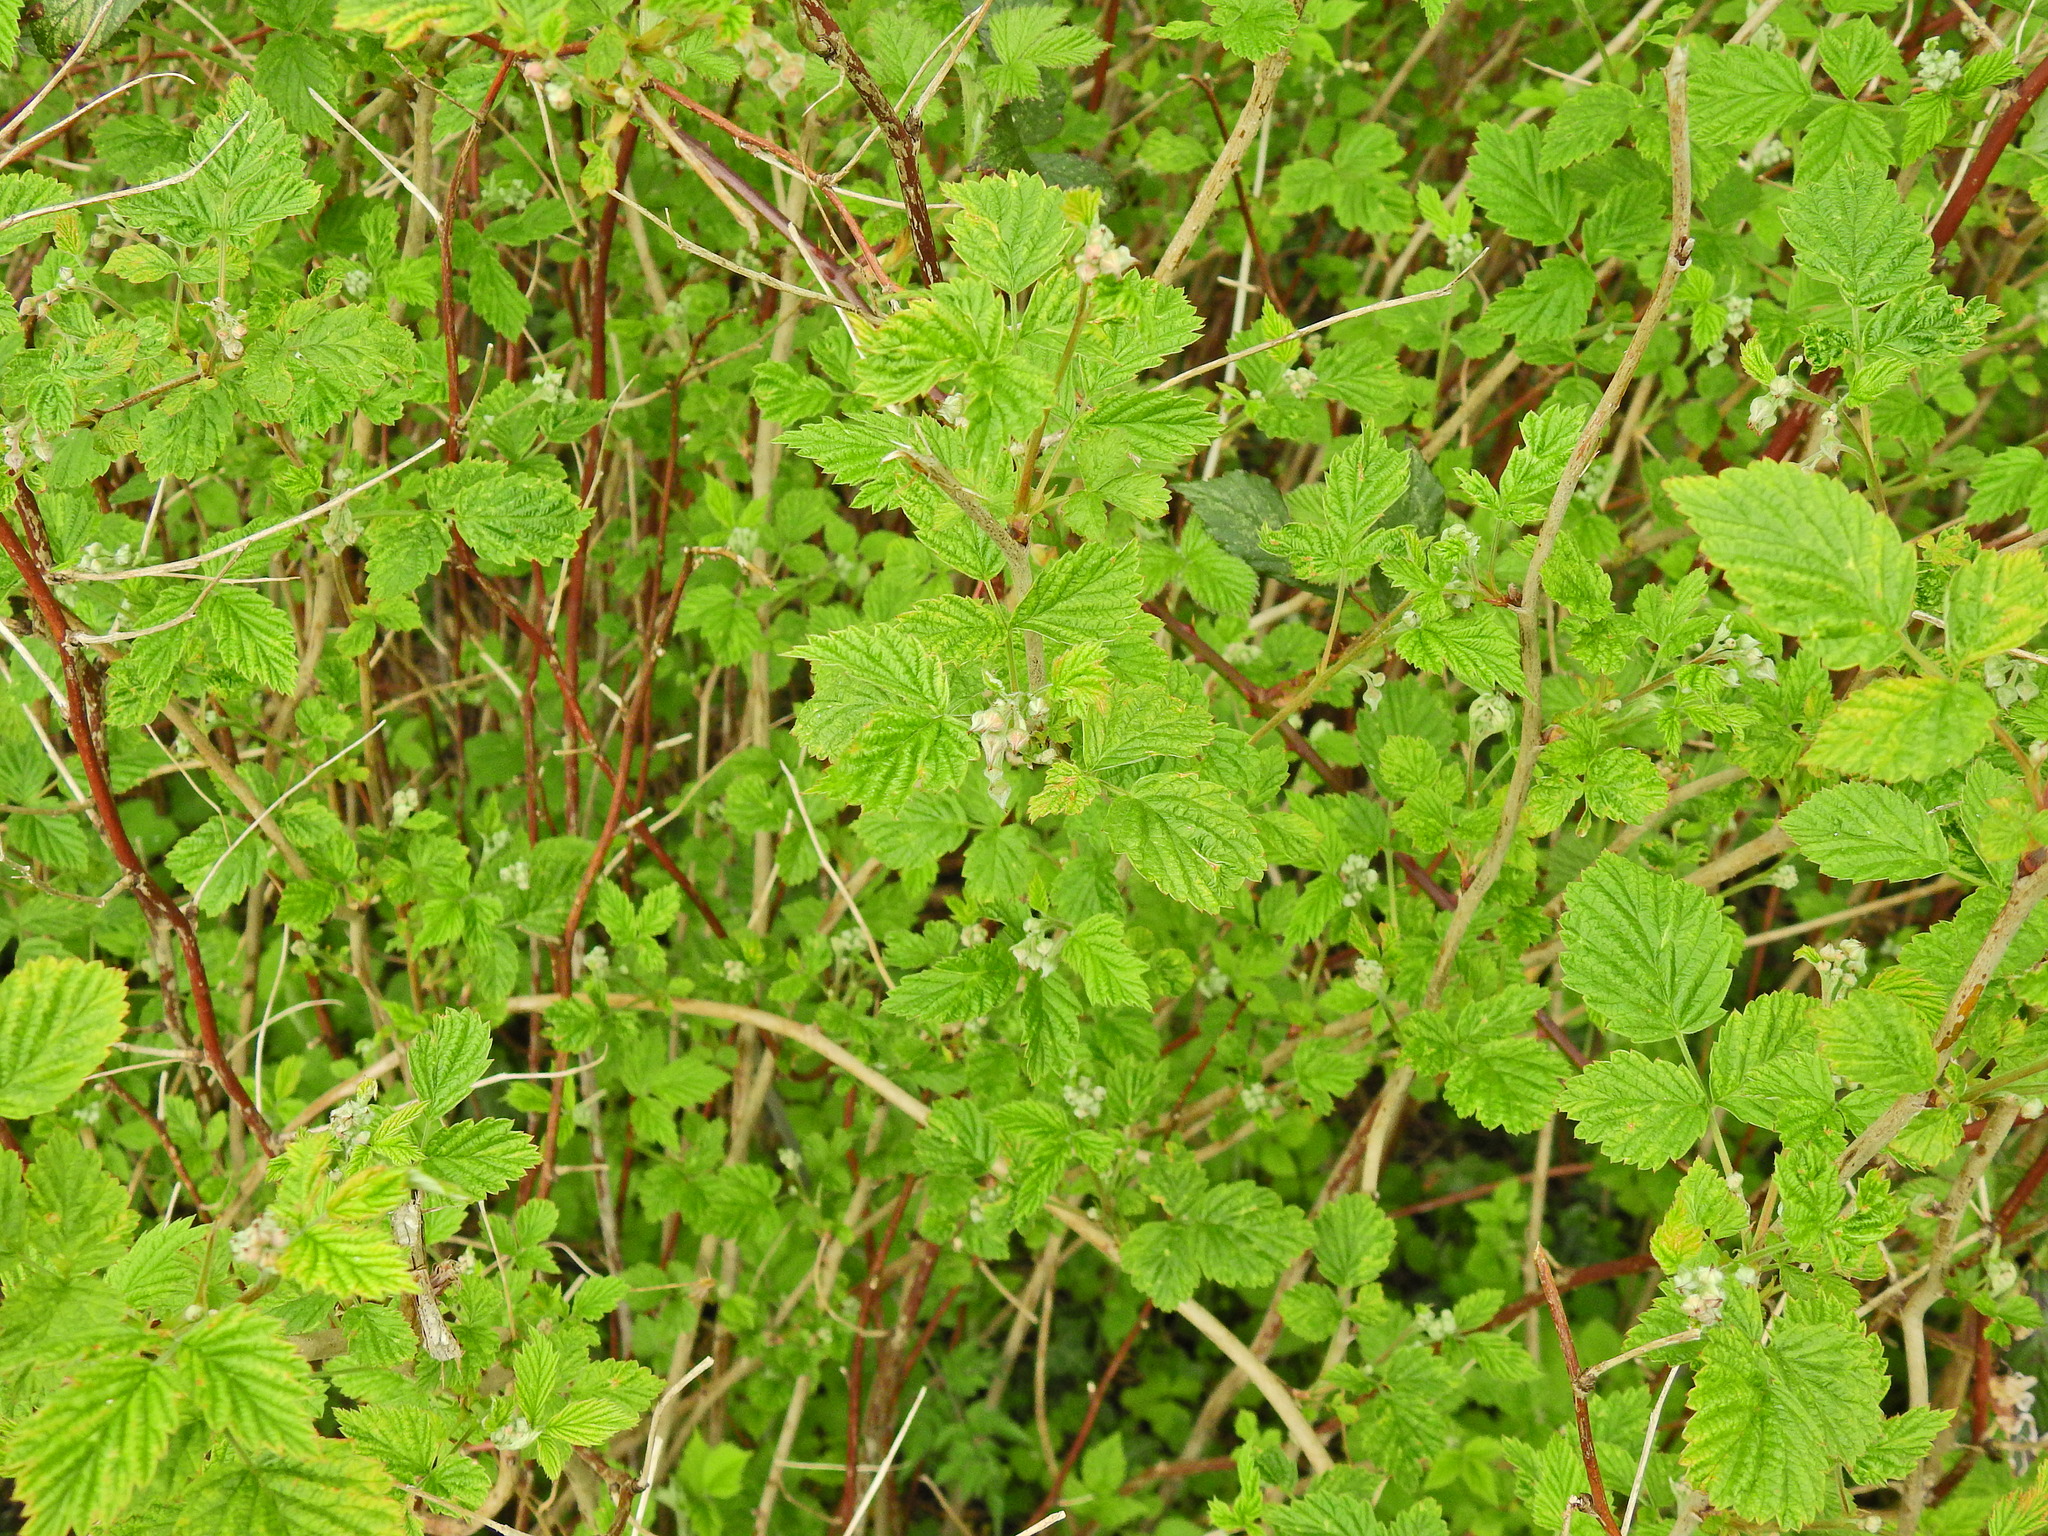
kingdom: Plantae
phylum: Tracheophyta
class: Magnoliopsida
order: Rosales
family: Rosaceae
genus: Rubus
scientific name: Rubus idaeus
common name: Raspberry
